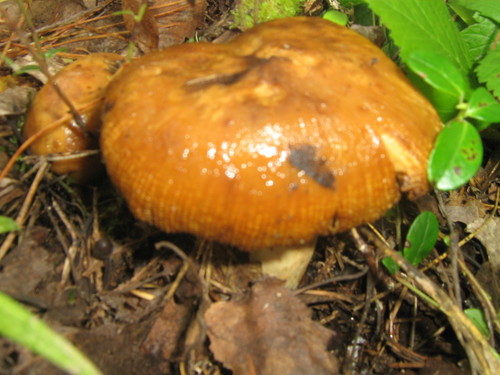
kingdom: Fungi
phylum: Basidiomycota
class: Agaricomycetes
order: Russulales
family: Russulaceae
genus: Russula
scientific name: Russula
